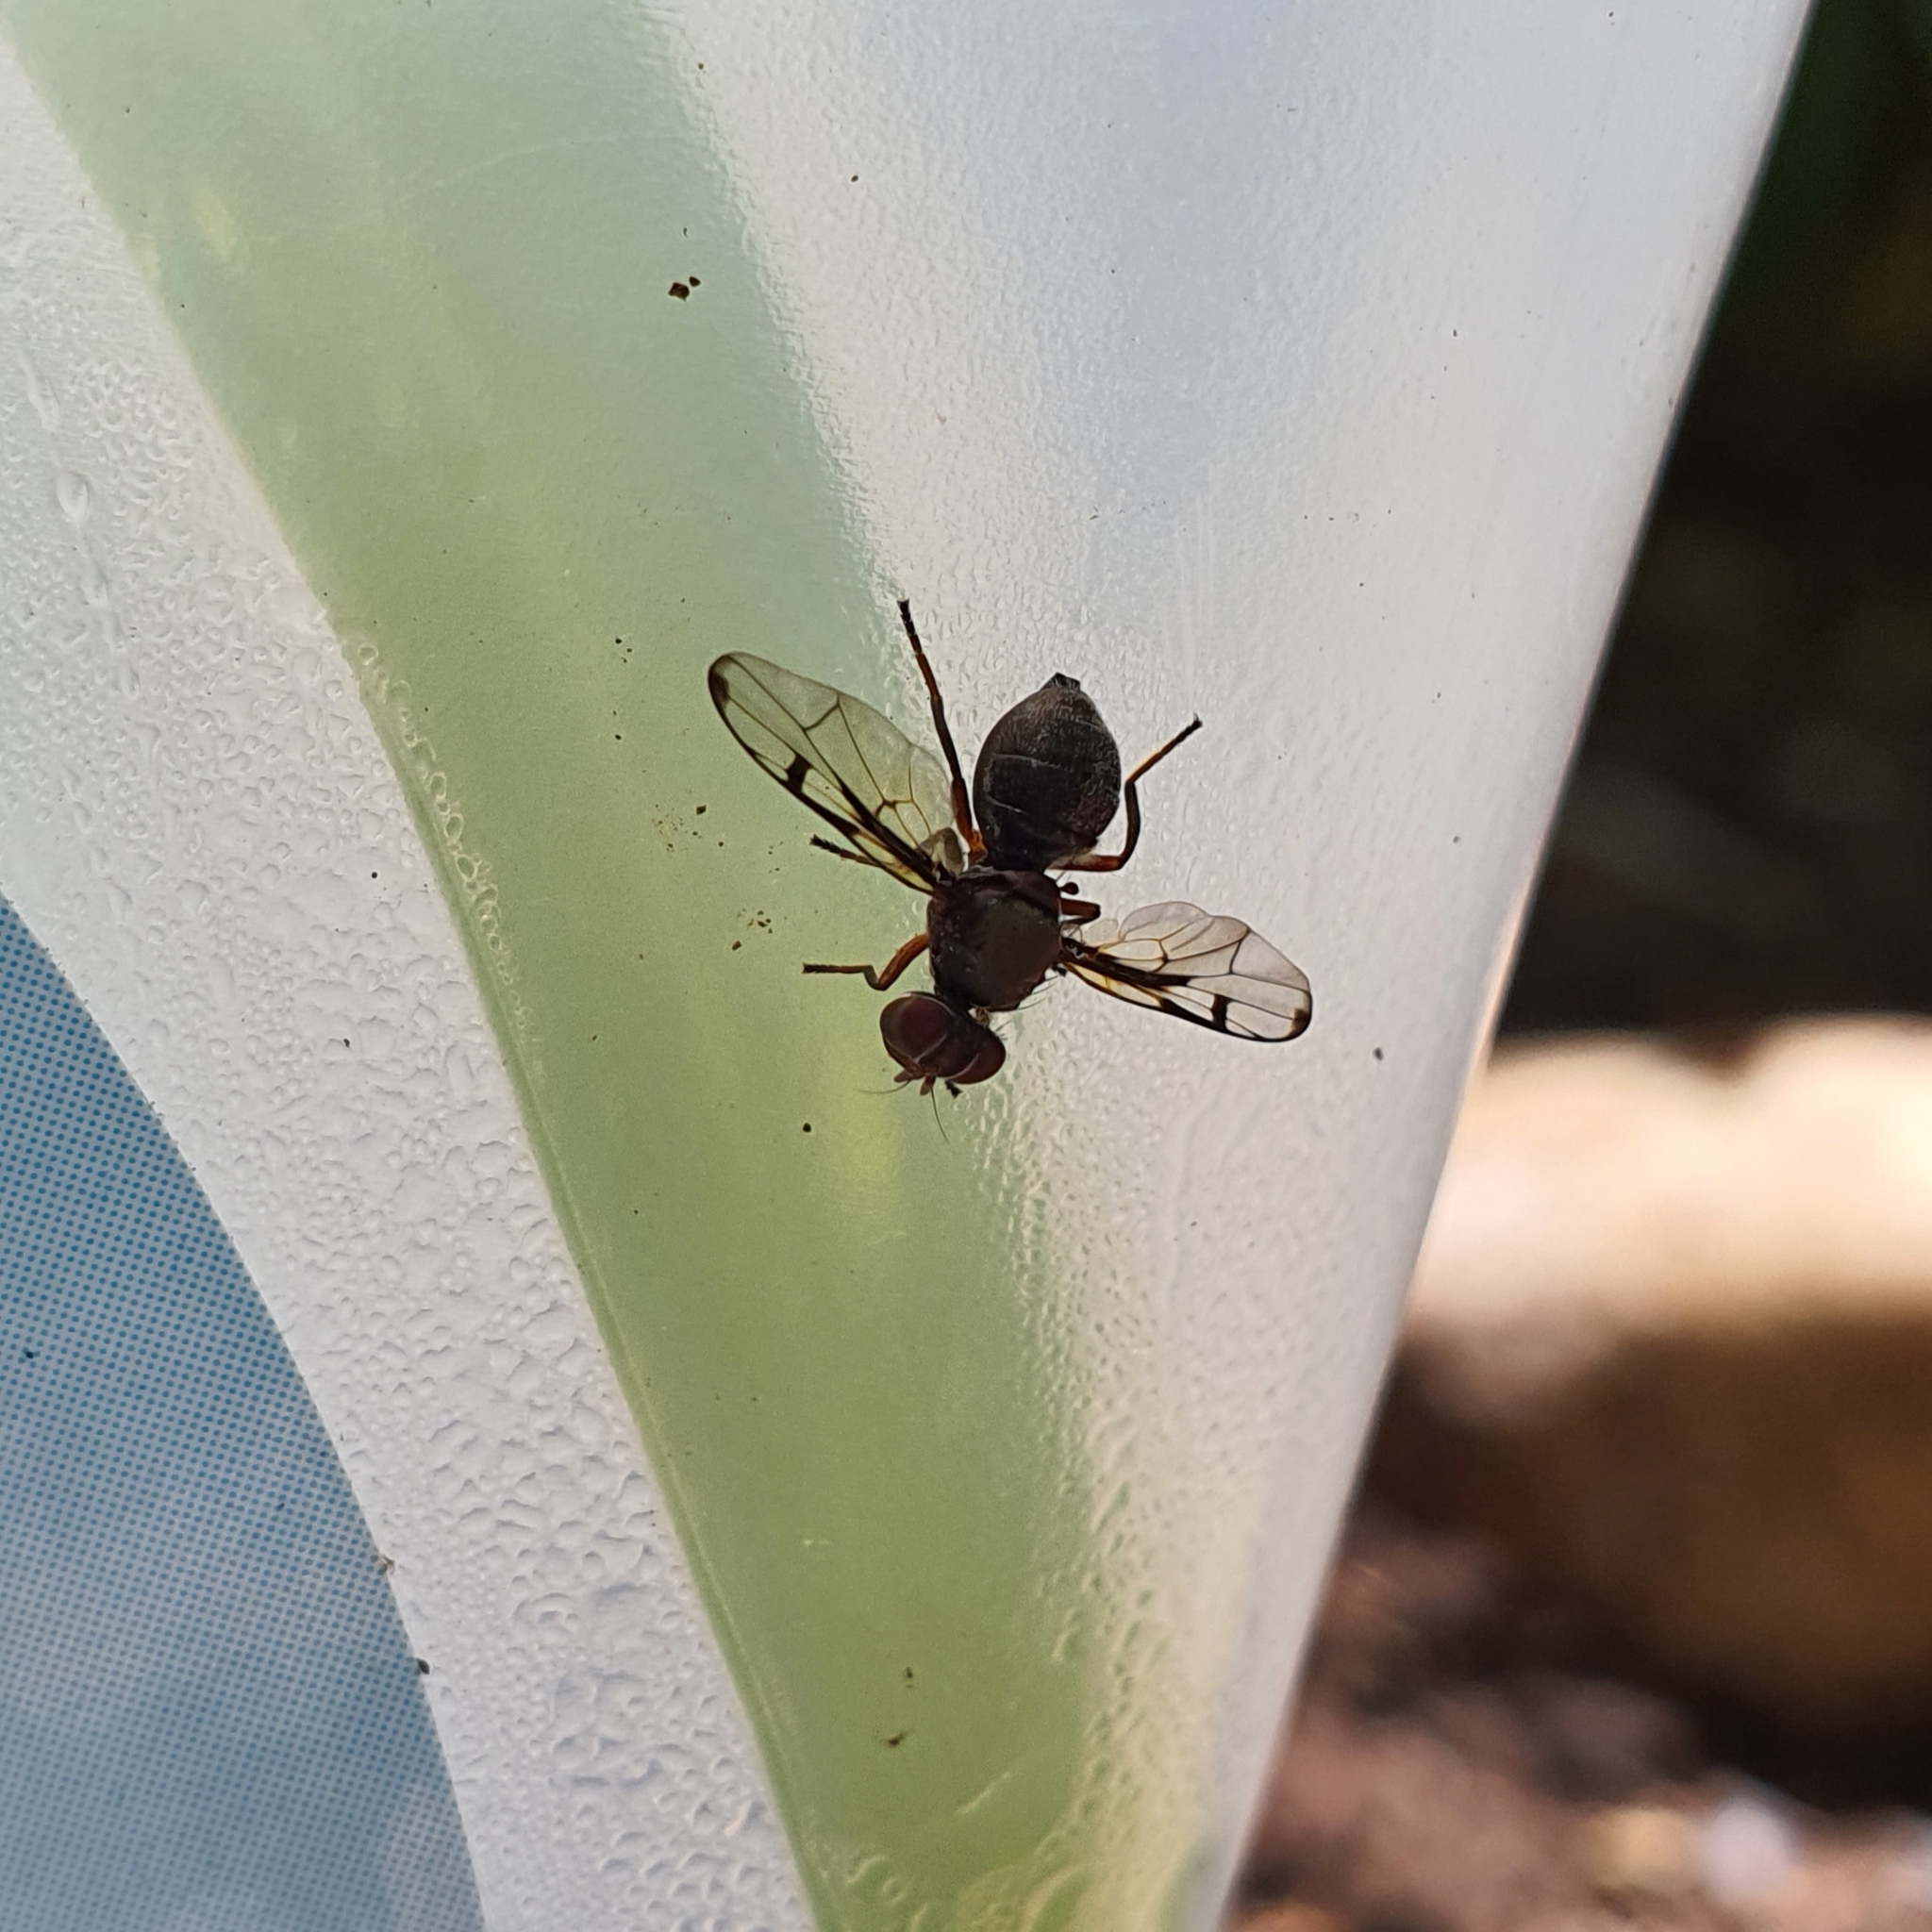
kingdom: Animalia
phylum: Arthropoda
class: Insecta
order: Diptera
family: Platystomatidae
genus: Pogonortalis
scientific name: Pogonortalis doclea
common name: Boatman fly
